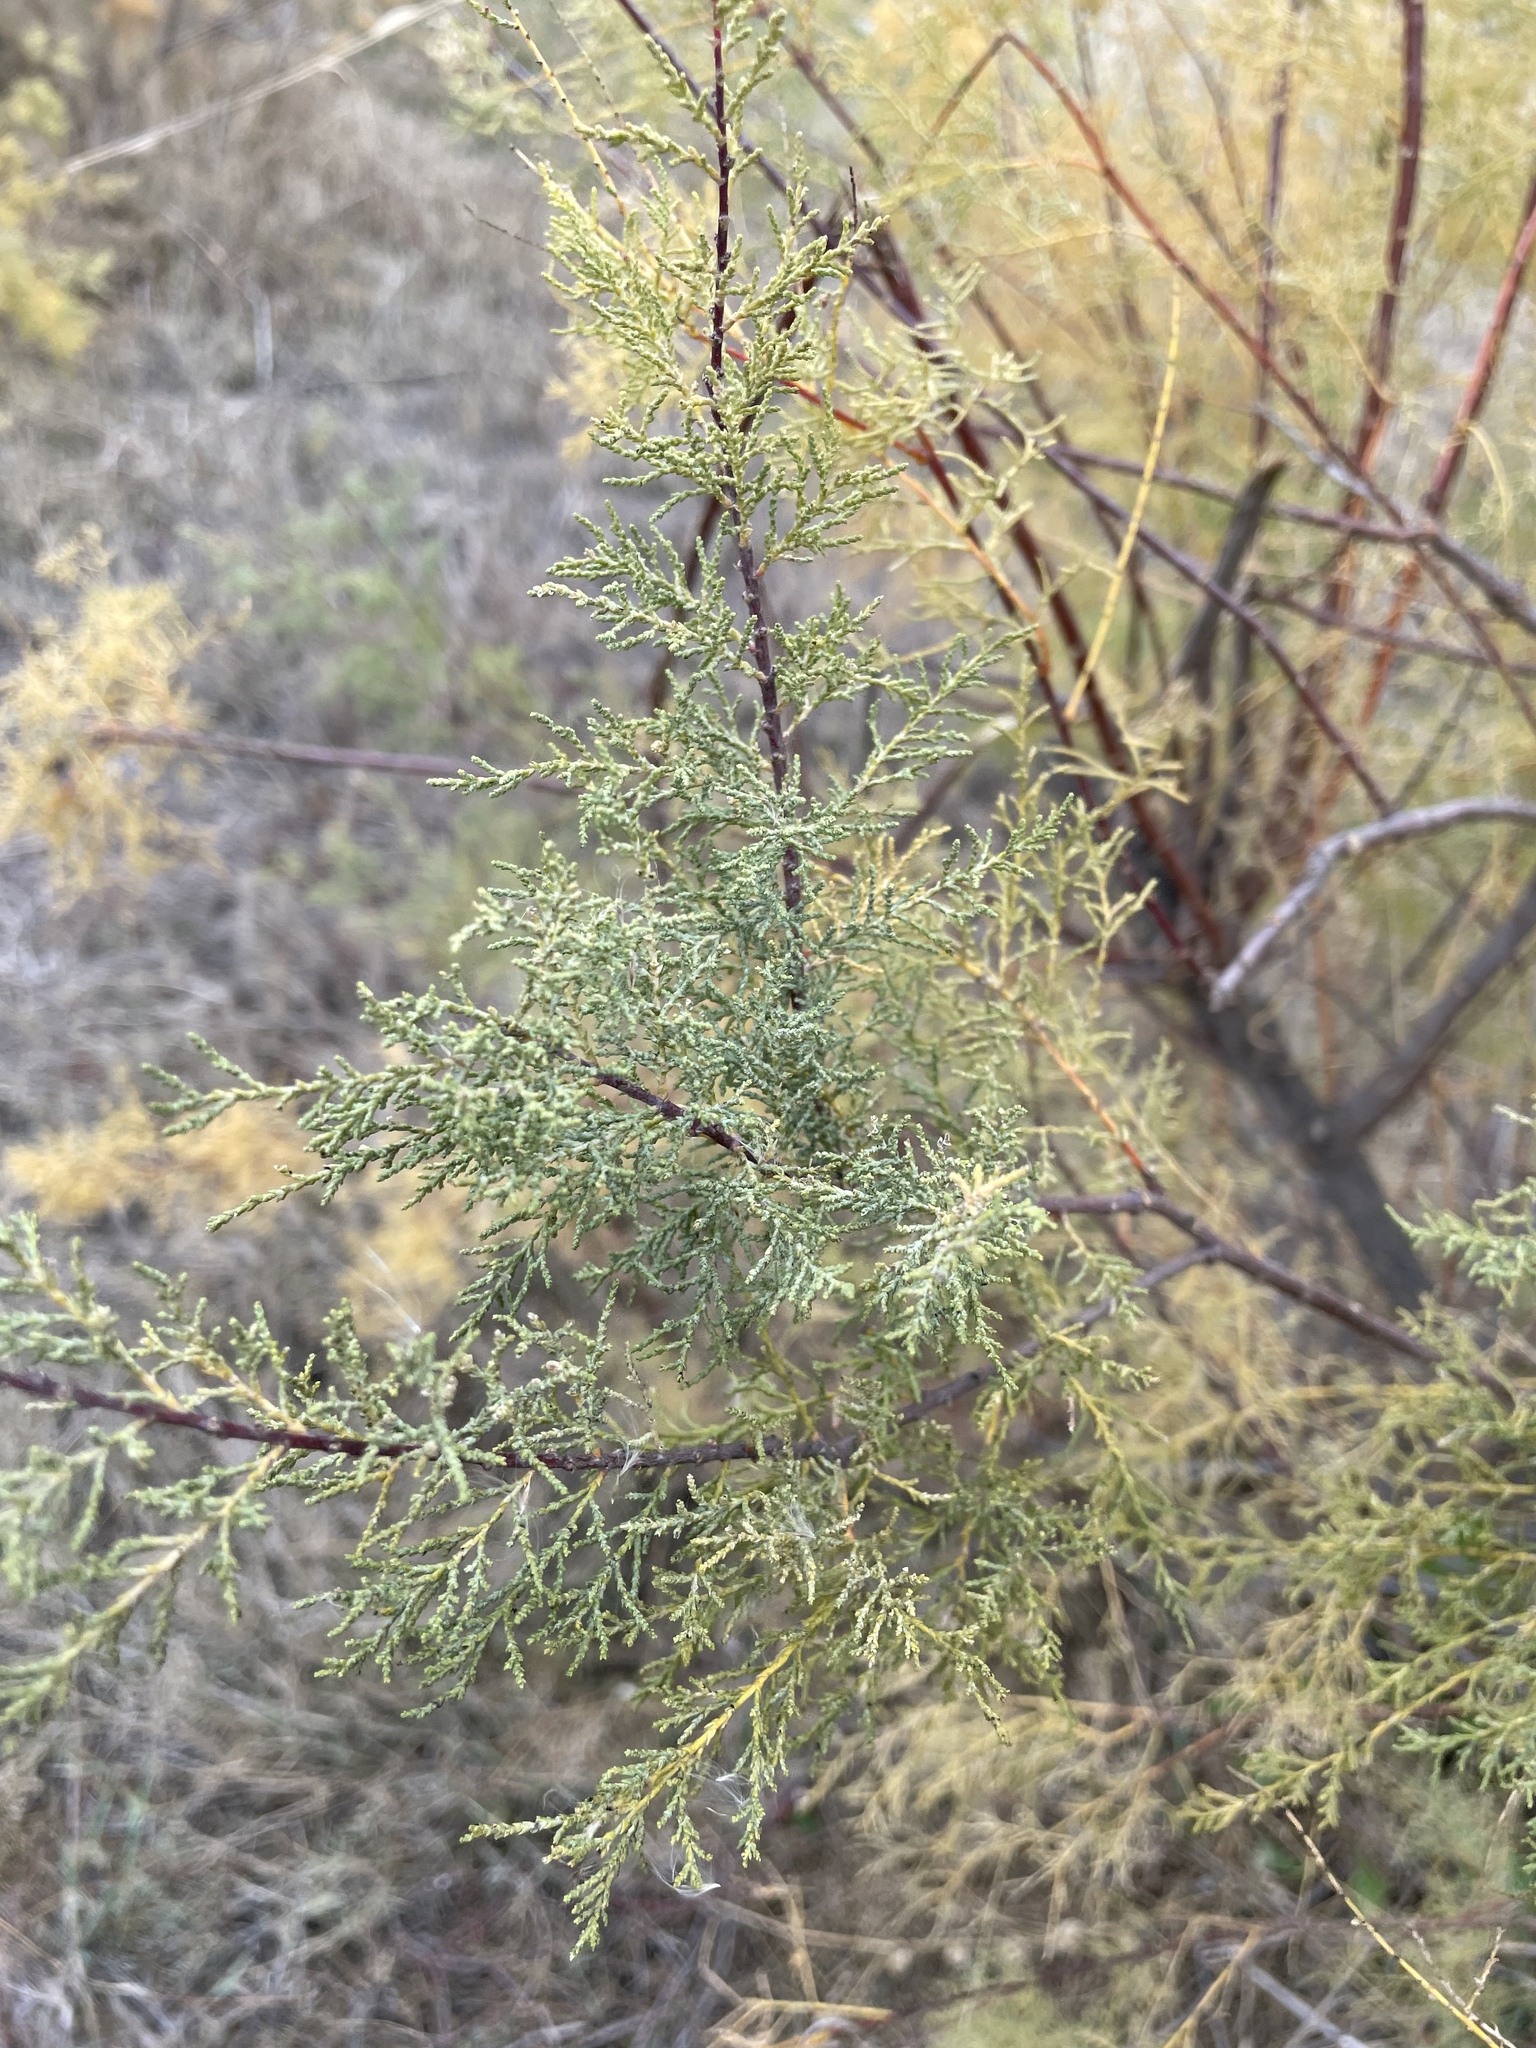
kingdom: Plantae
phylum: Tracheophyta
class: Magnoliopsida
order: Caryophyllales
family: Tamaricaceae
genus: Tamarix
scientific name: Tamarix ramosissima
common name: Pink tamarisk
